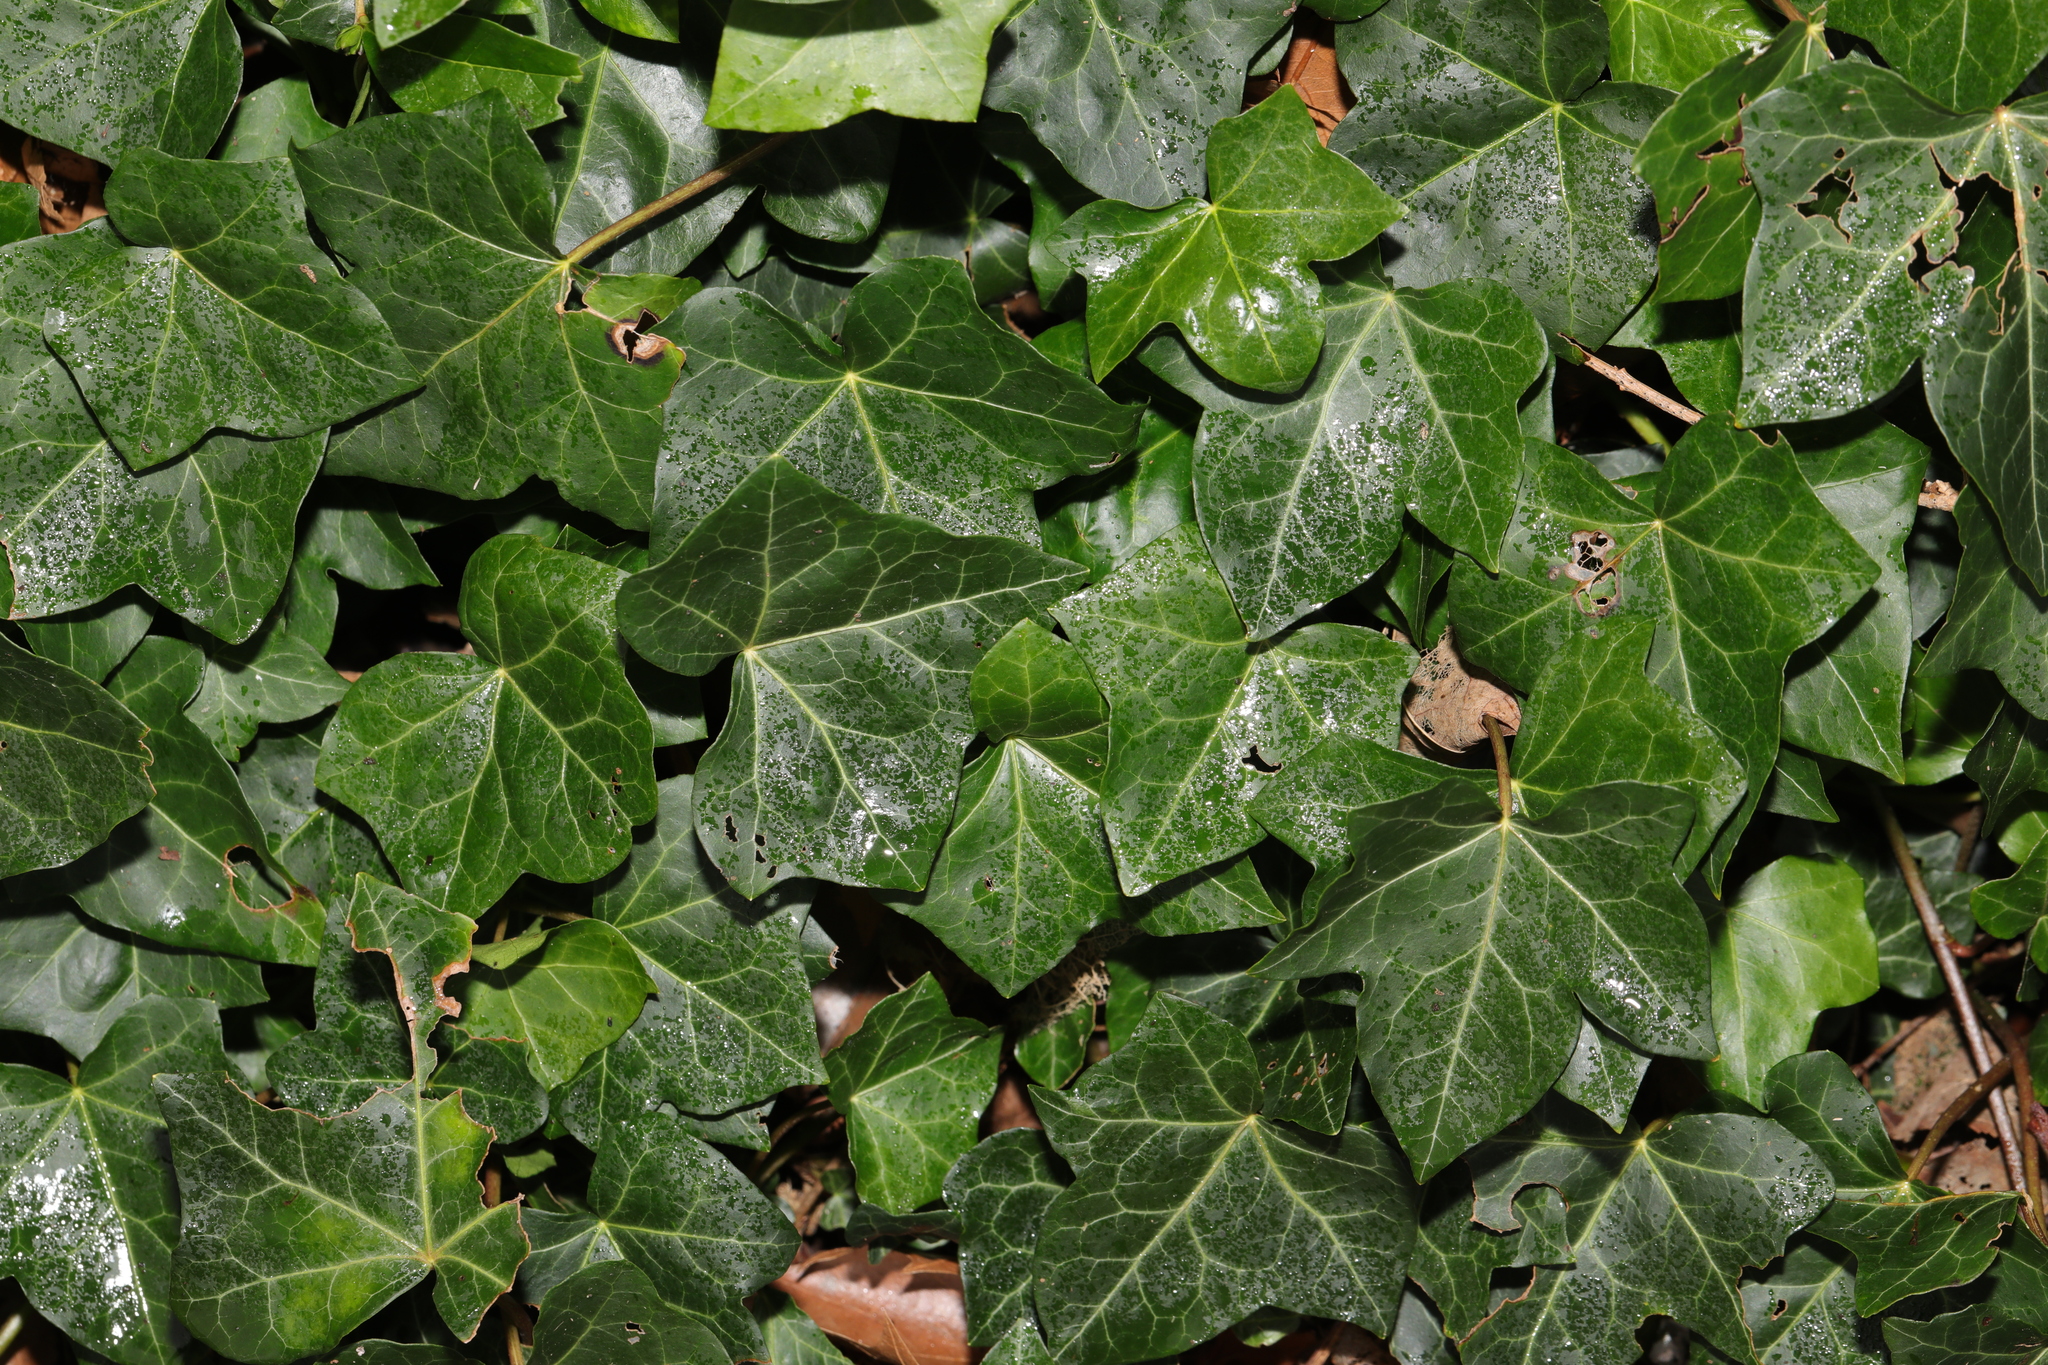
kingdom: Plantae
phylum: Tracheophyta
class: Magnoliopsida
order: Apiales
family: Araliaceae
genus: Hedera
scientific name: Hedera helix
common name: Ivy
